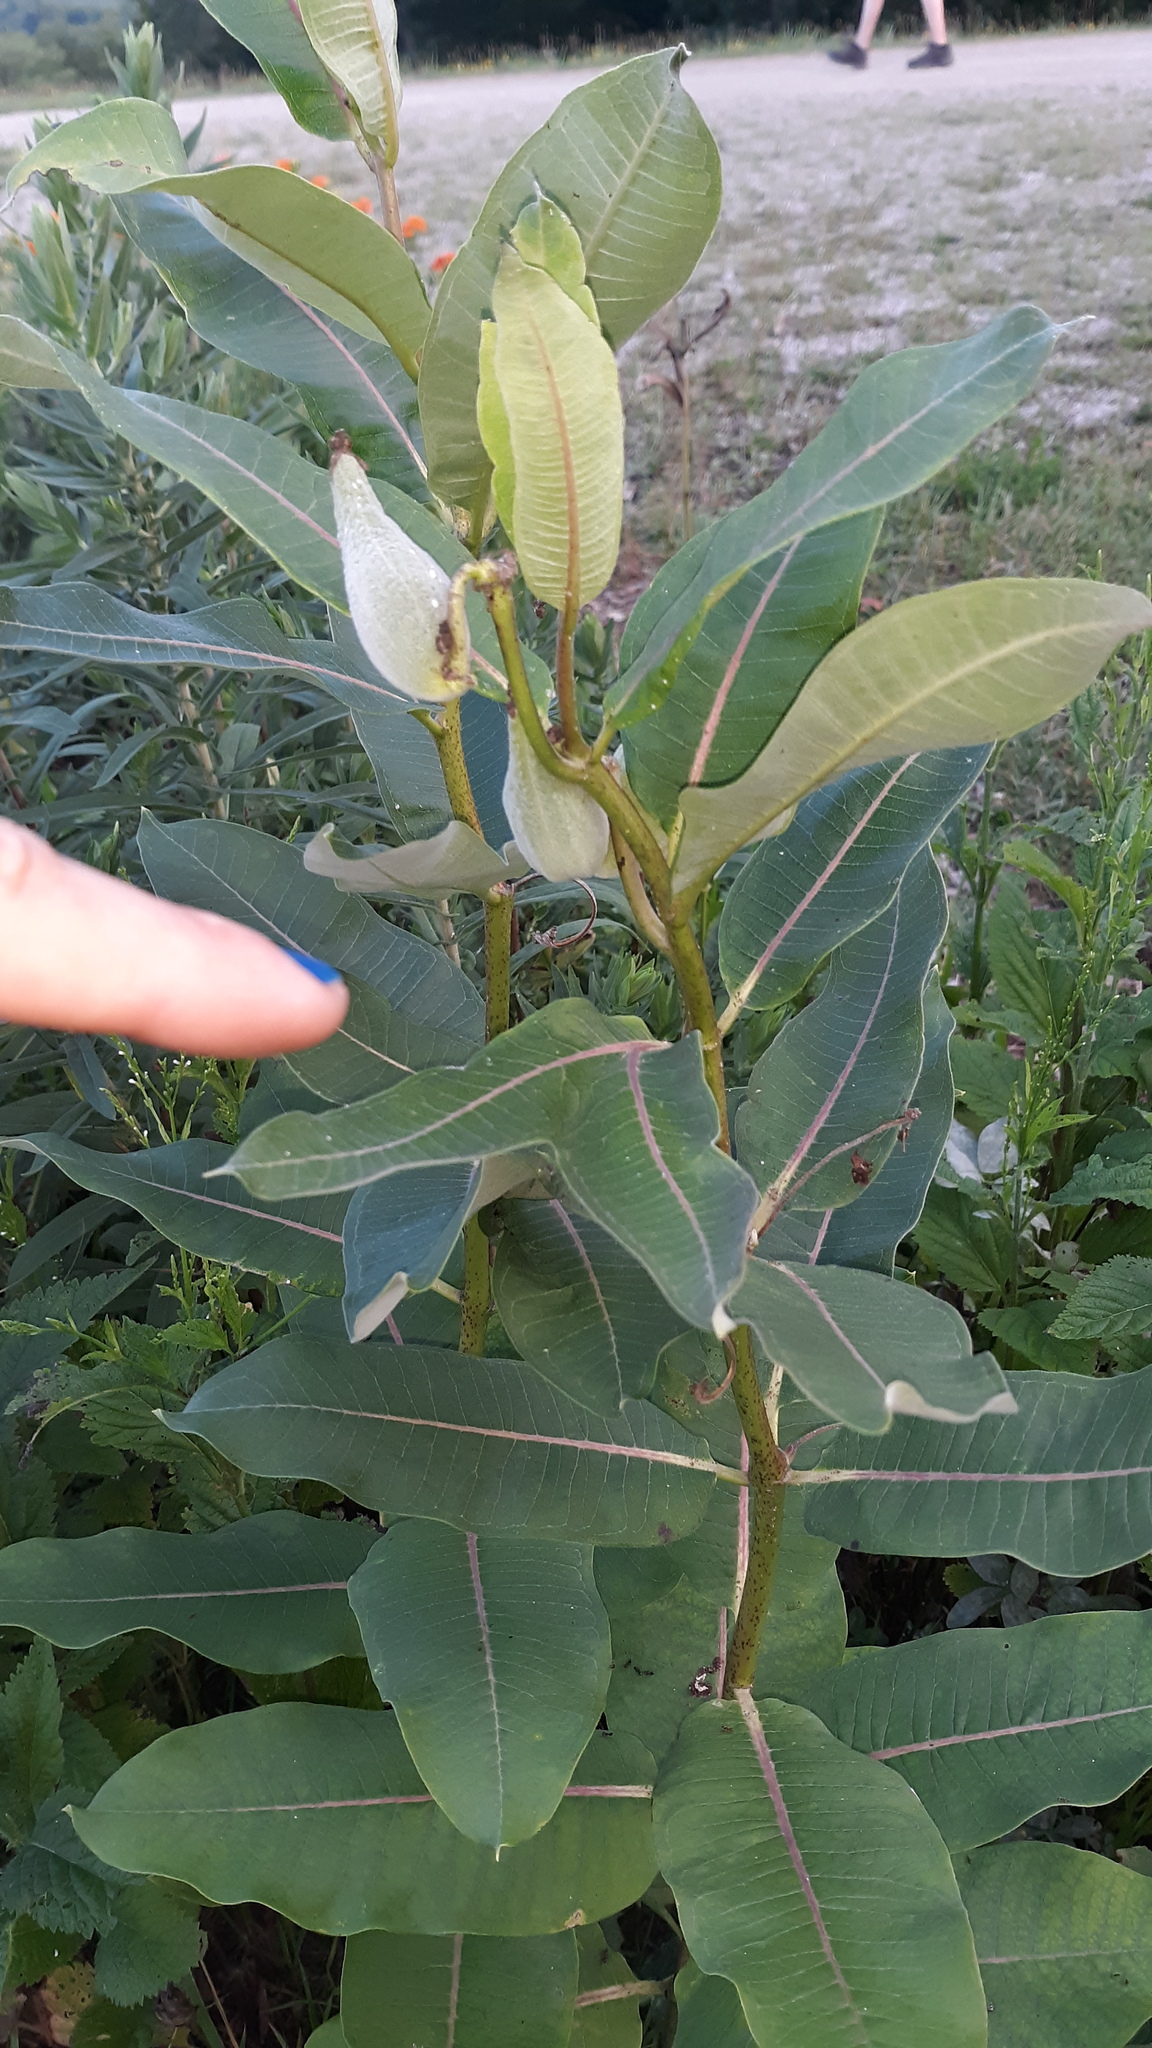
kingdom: Plantae
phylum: Tracheophyta
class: Magnoliopsida
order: Gentianales
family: Apocynaceae
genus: Asclepias
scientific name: Asclepias syriaca
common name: Common milkweed
